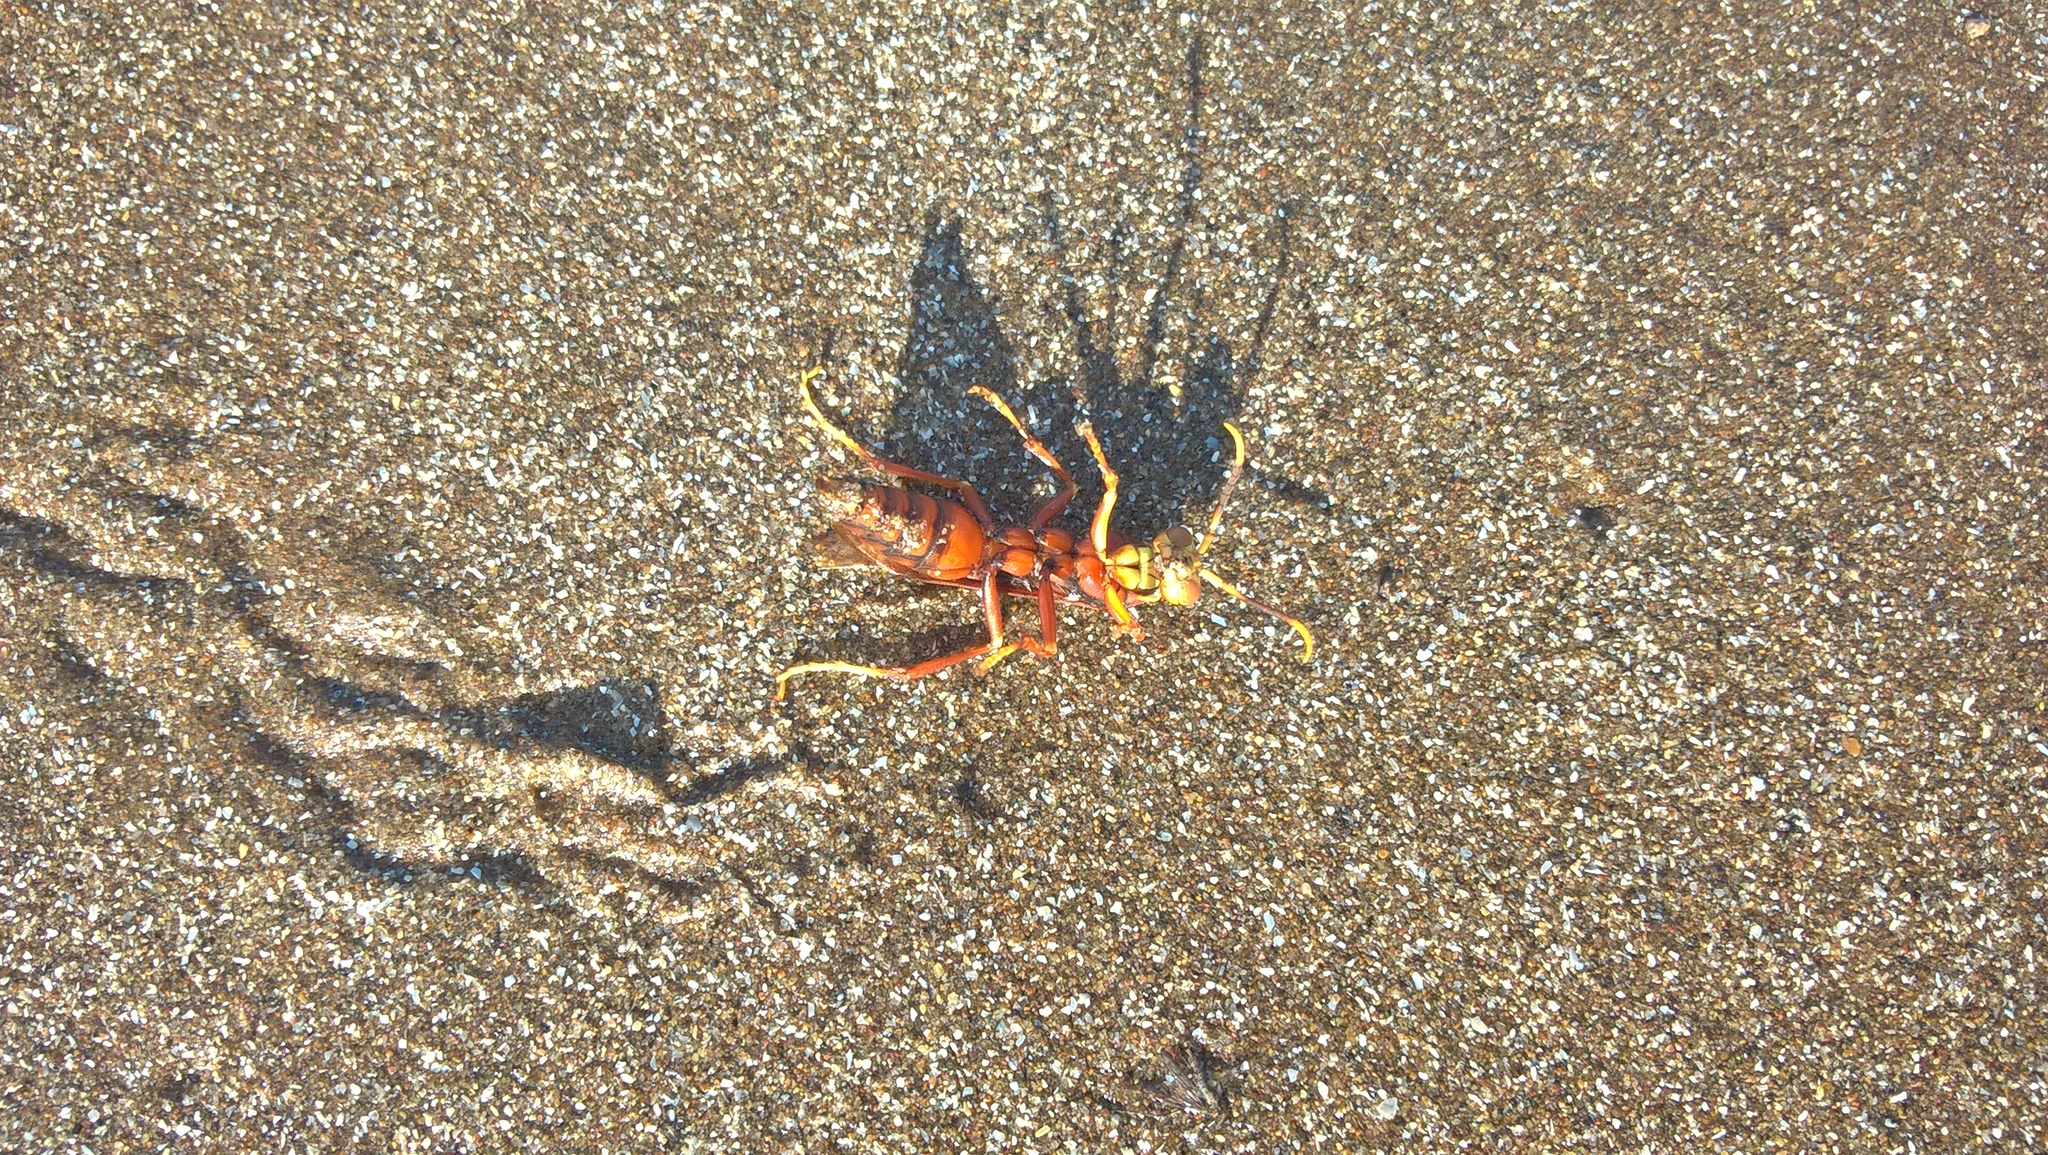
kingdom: Animalia
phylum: Arthropoda
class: Insecta
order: Hymenoptera
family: Pompilidae
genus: Aphanilopterus
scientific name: Aphanilopterus
